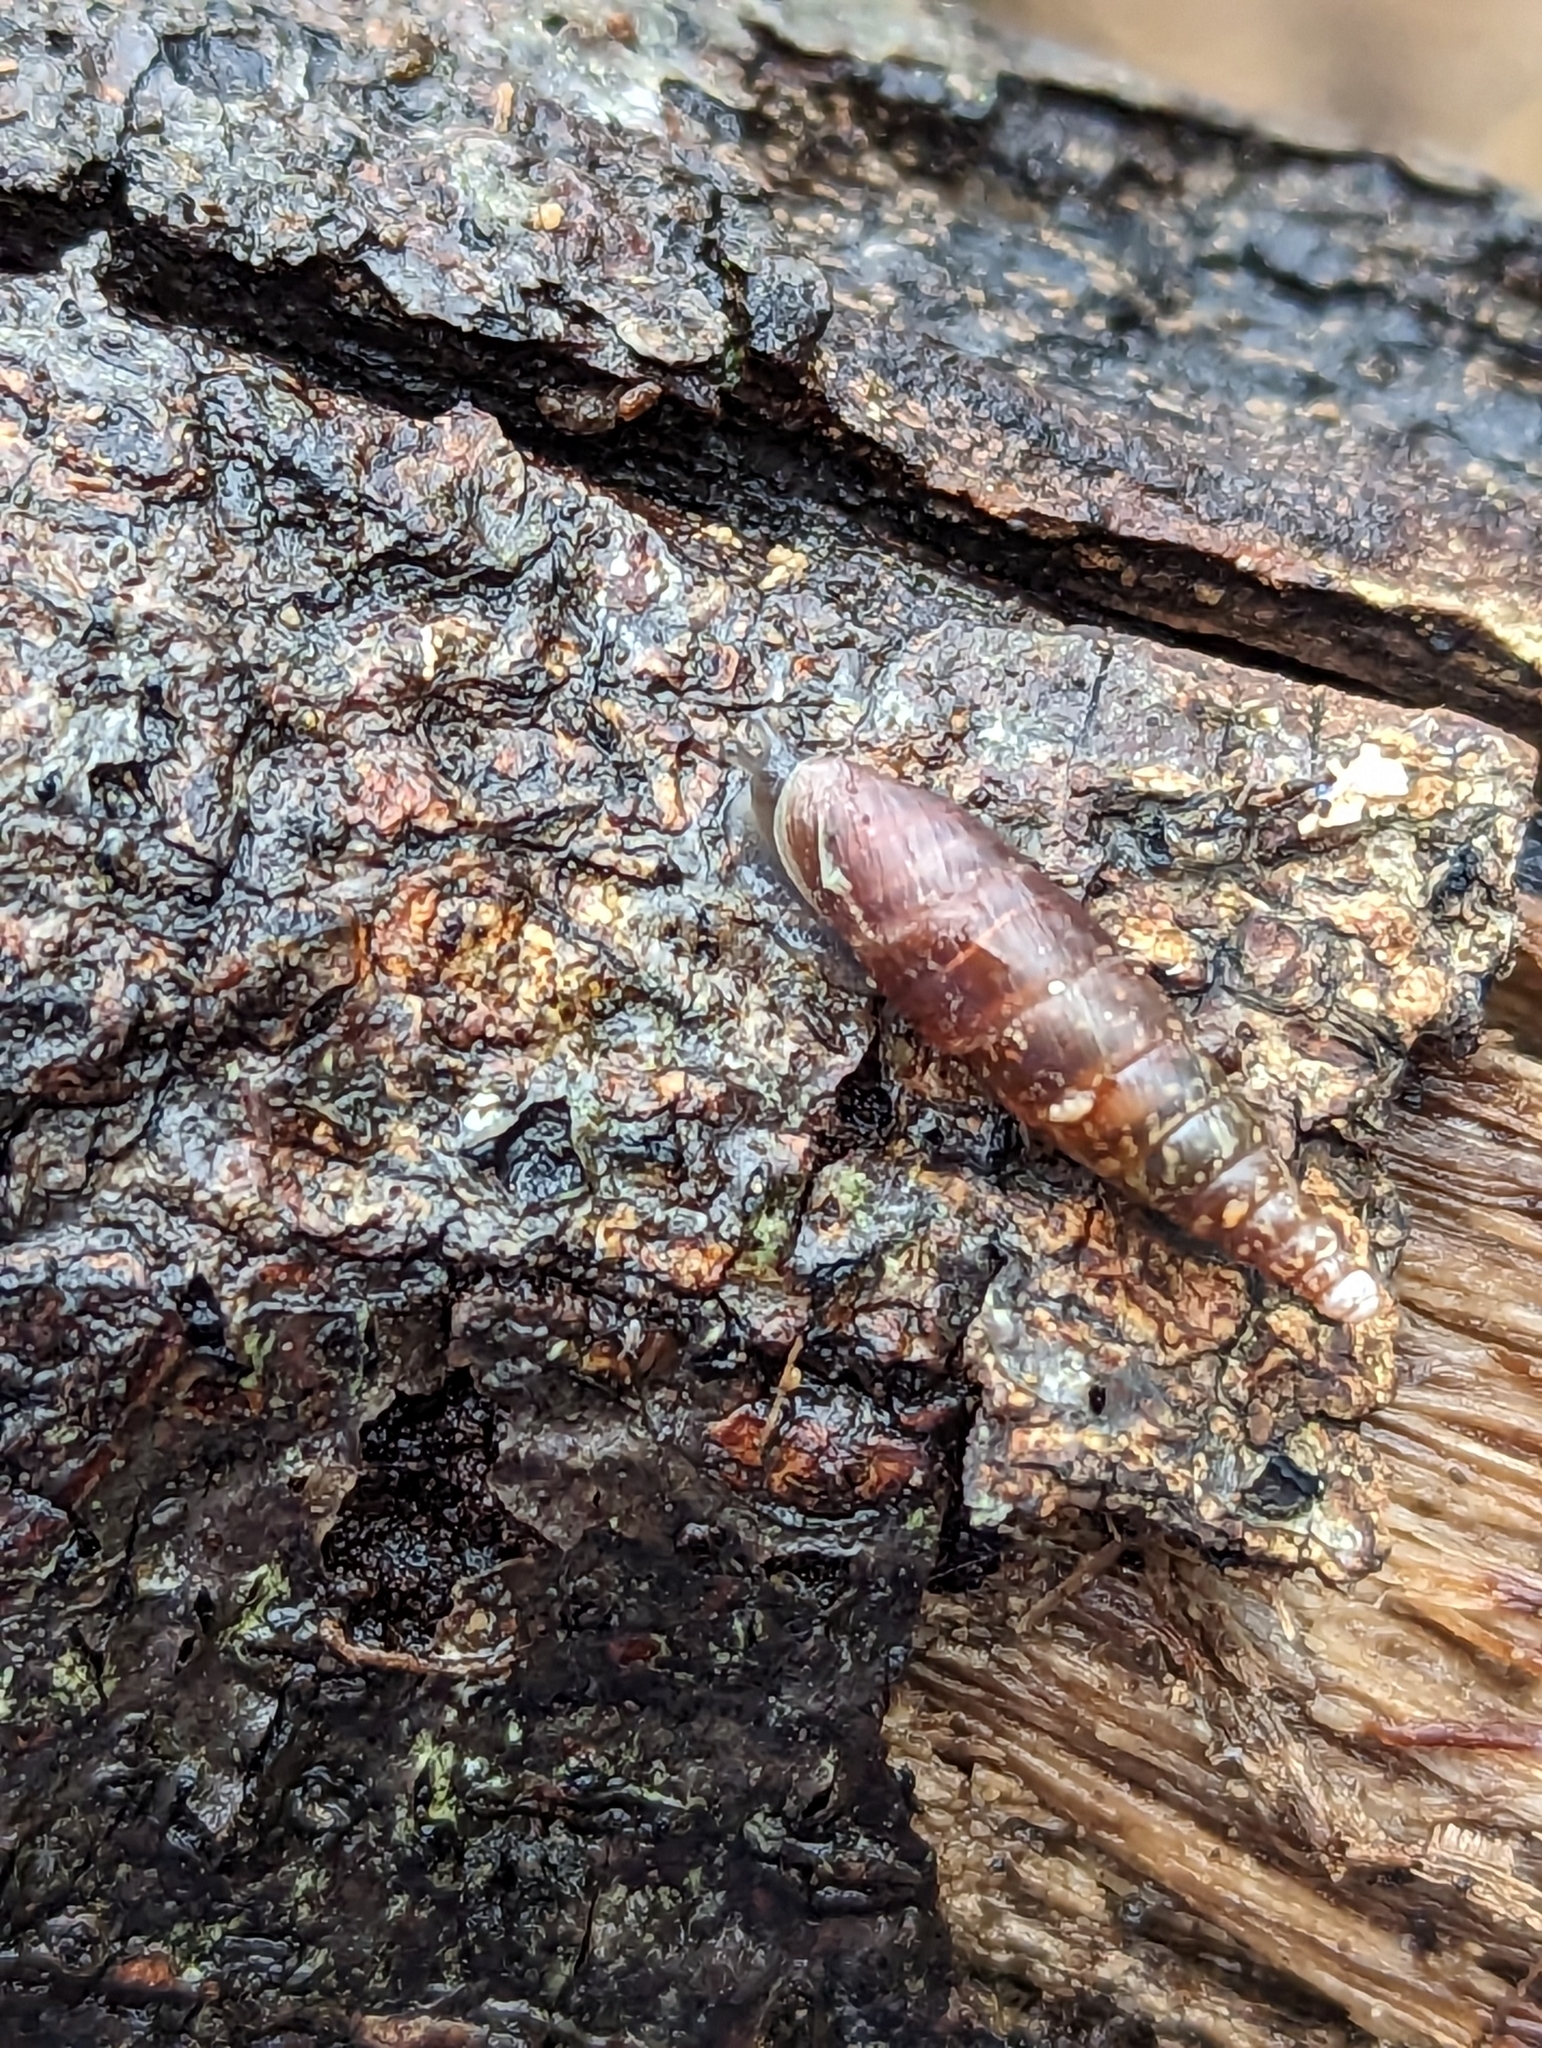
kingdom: Animalia
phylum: Mollusca
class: Gastropoda
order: Stylommatophora
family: Clausiliidae
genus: Cochlodina
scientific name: Cochlodina laminata
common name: Plaited door snail
